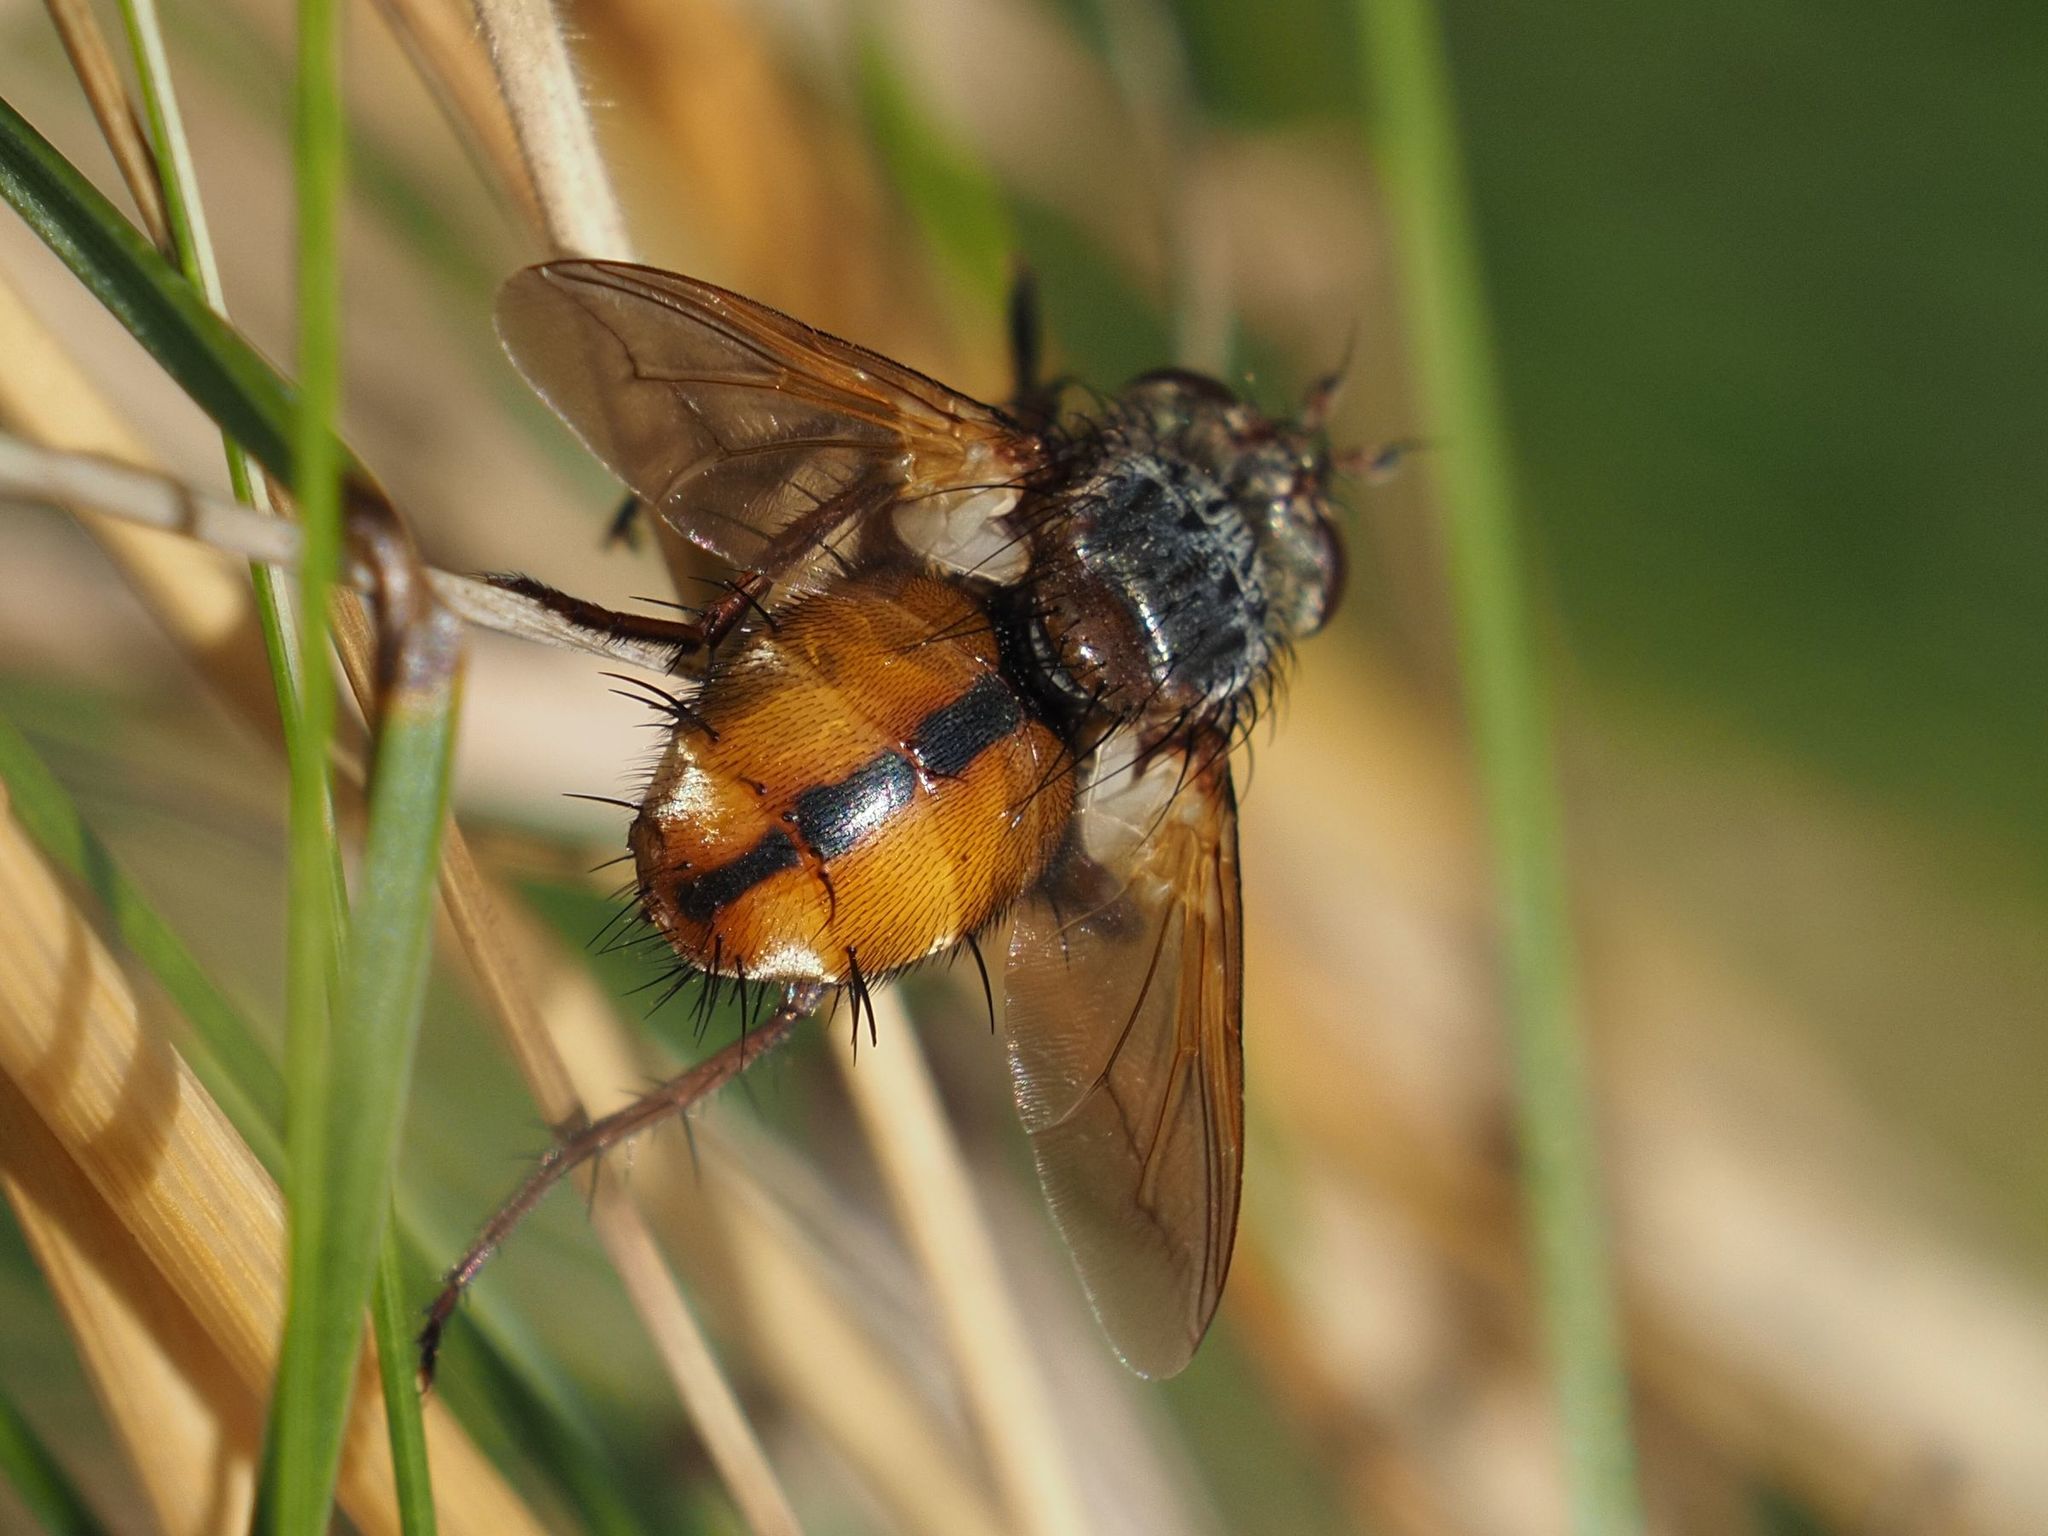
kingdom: Animalia
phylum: Arthropoda
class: Insecta
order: Diptera
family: Tachinidae
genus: Tachina
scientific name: Tachina fera
